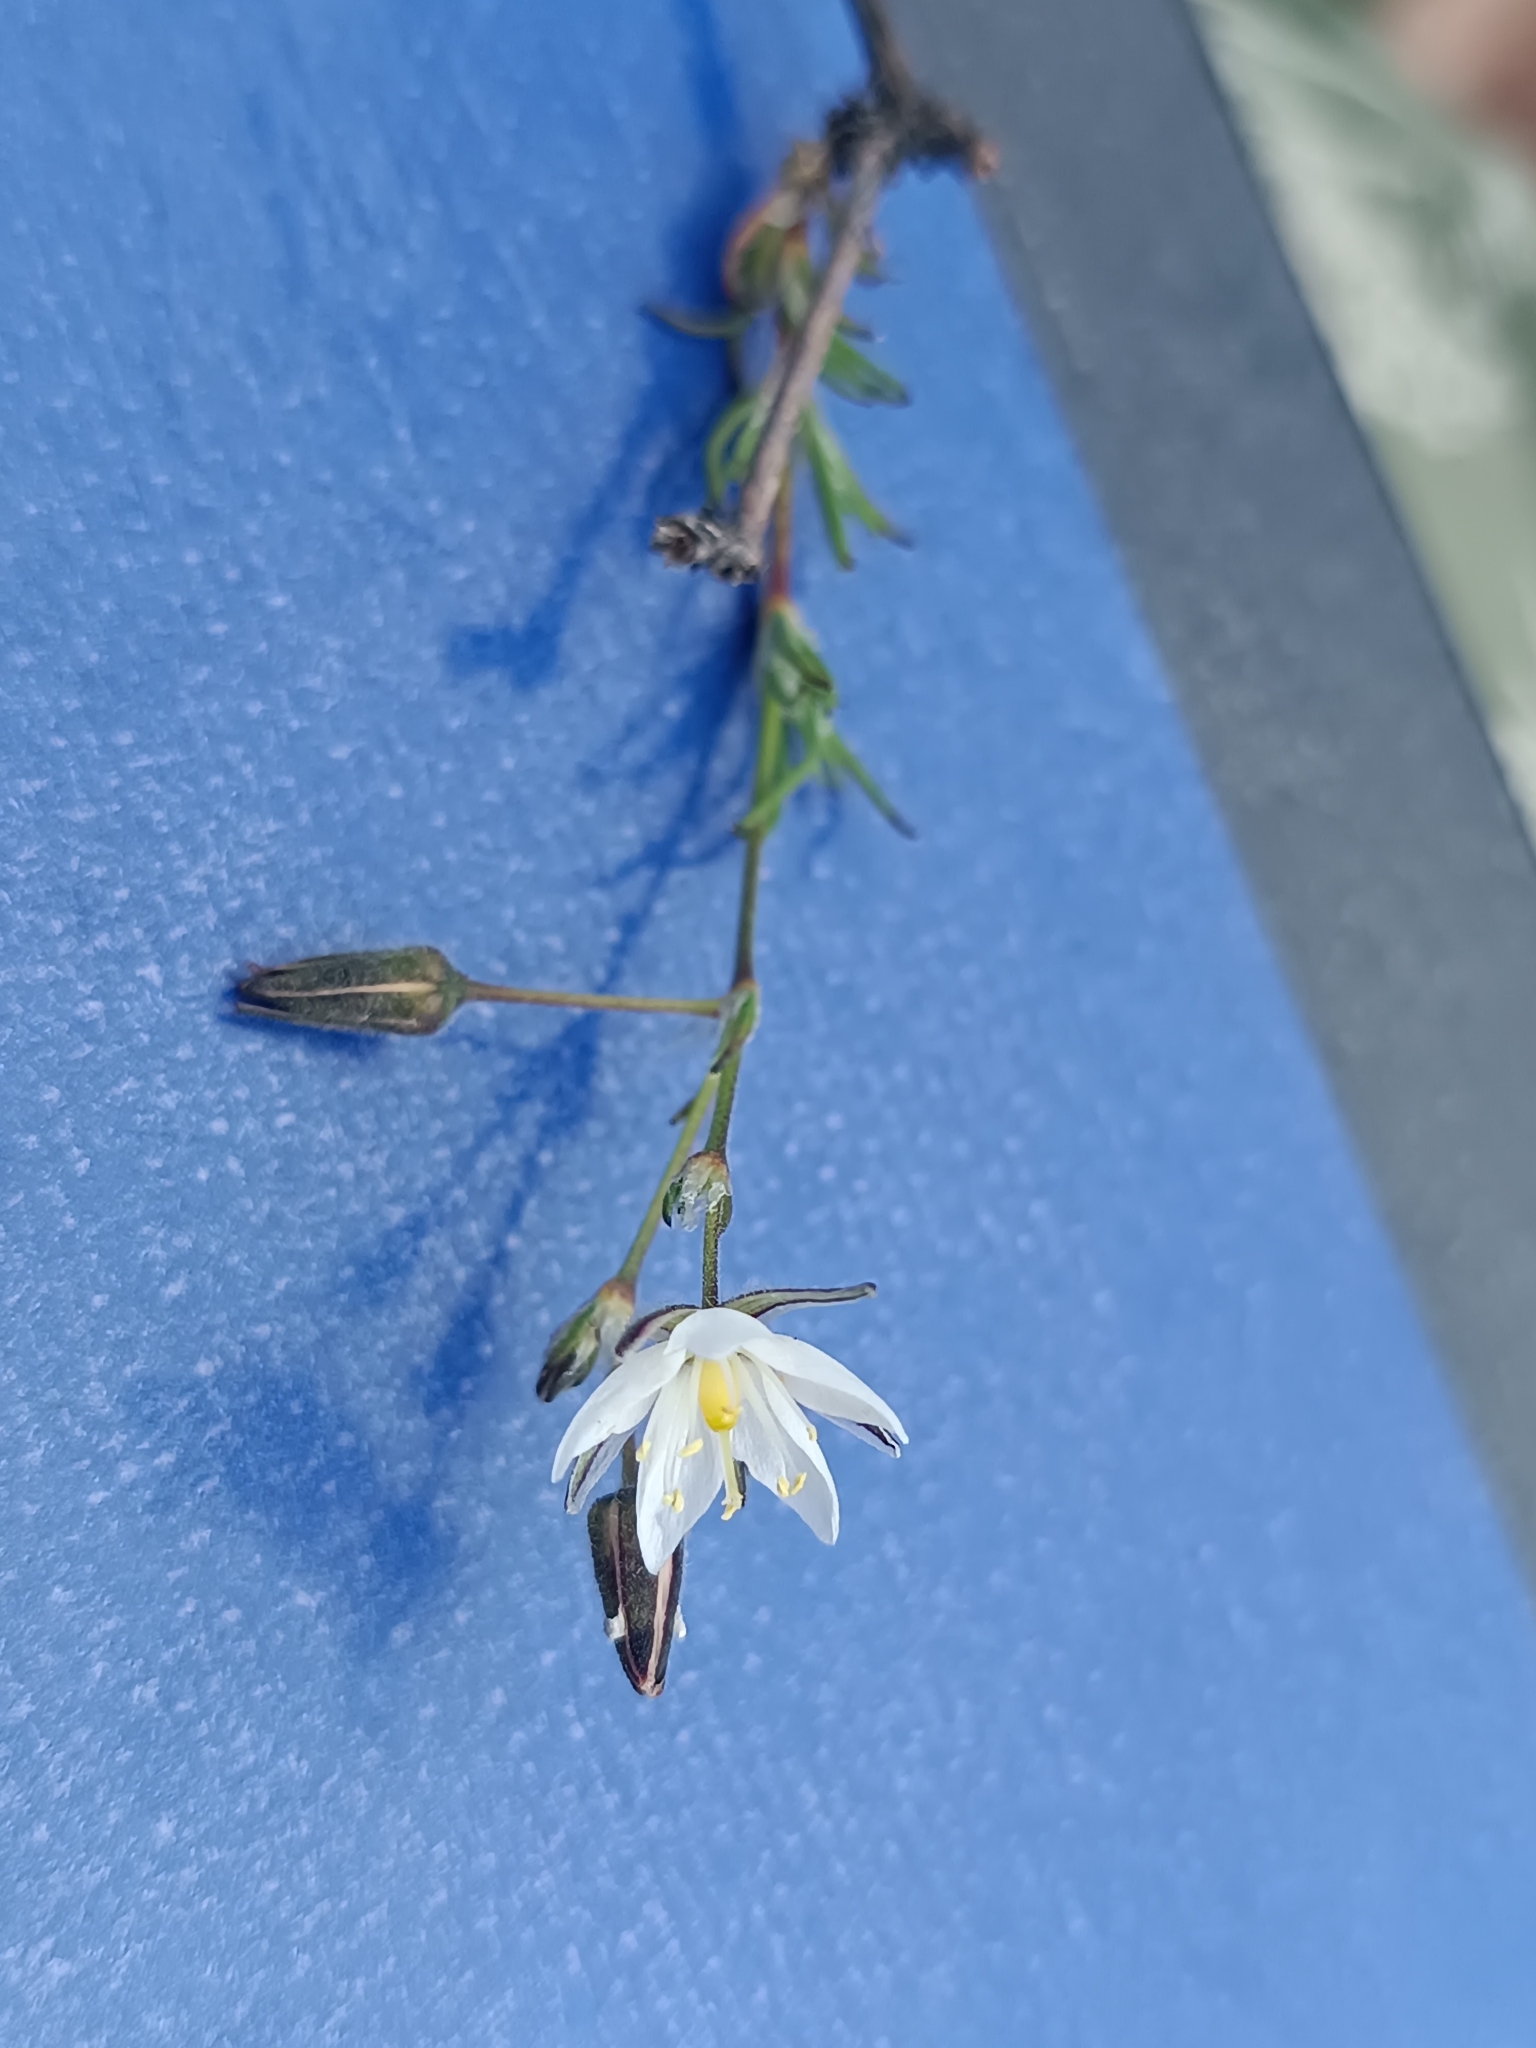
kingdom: Plantae
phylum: Tracheophyta
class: Magnoliopsida
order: Caryophyllales
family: Caryophyllaceae
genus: Spergularia
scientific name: Spergularia fasciculata
